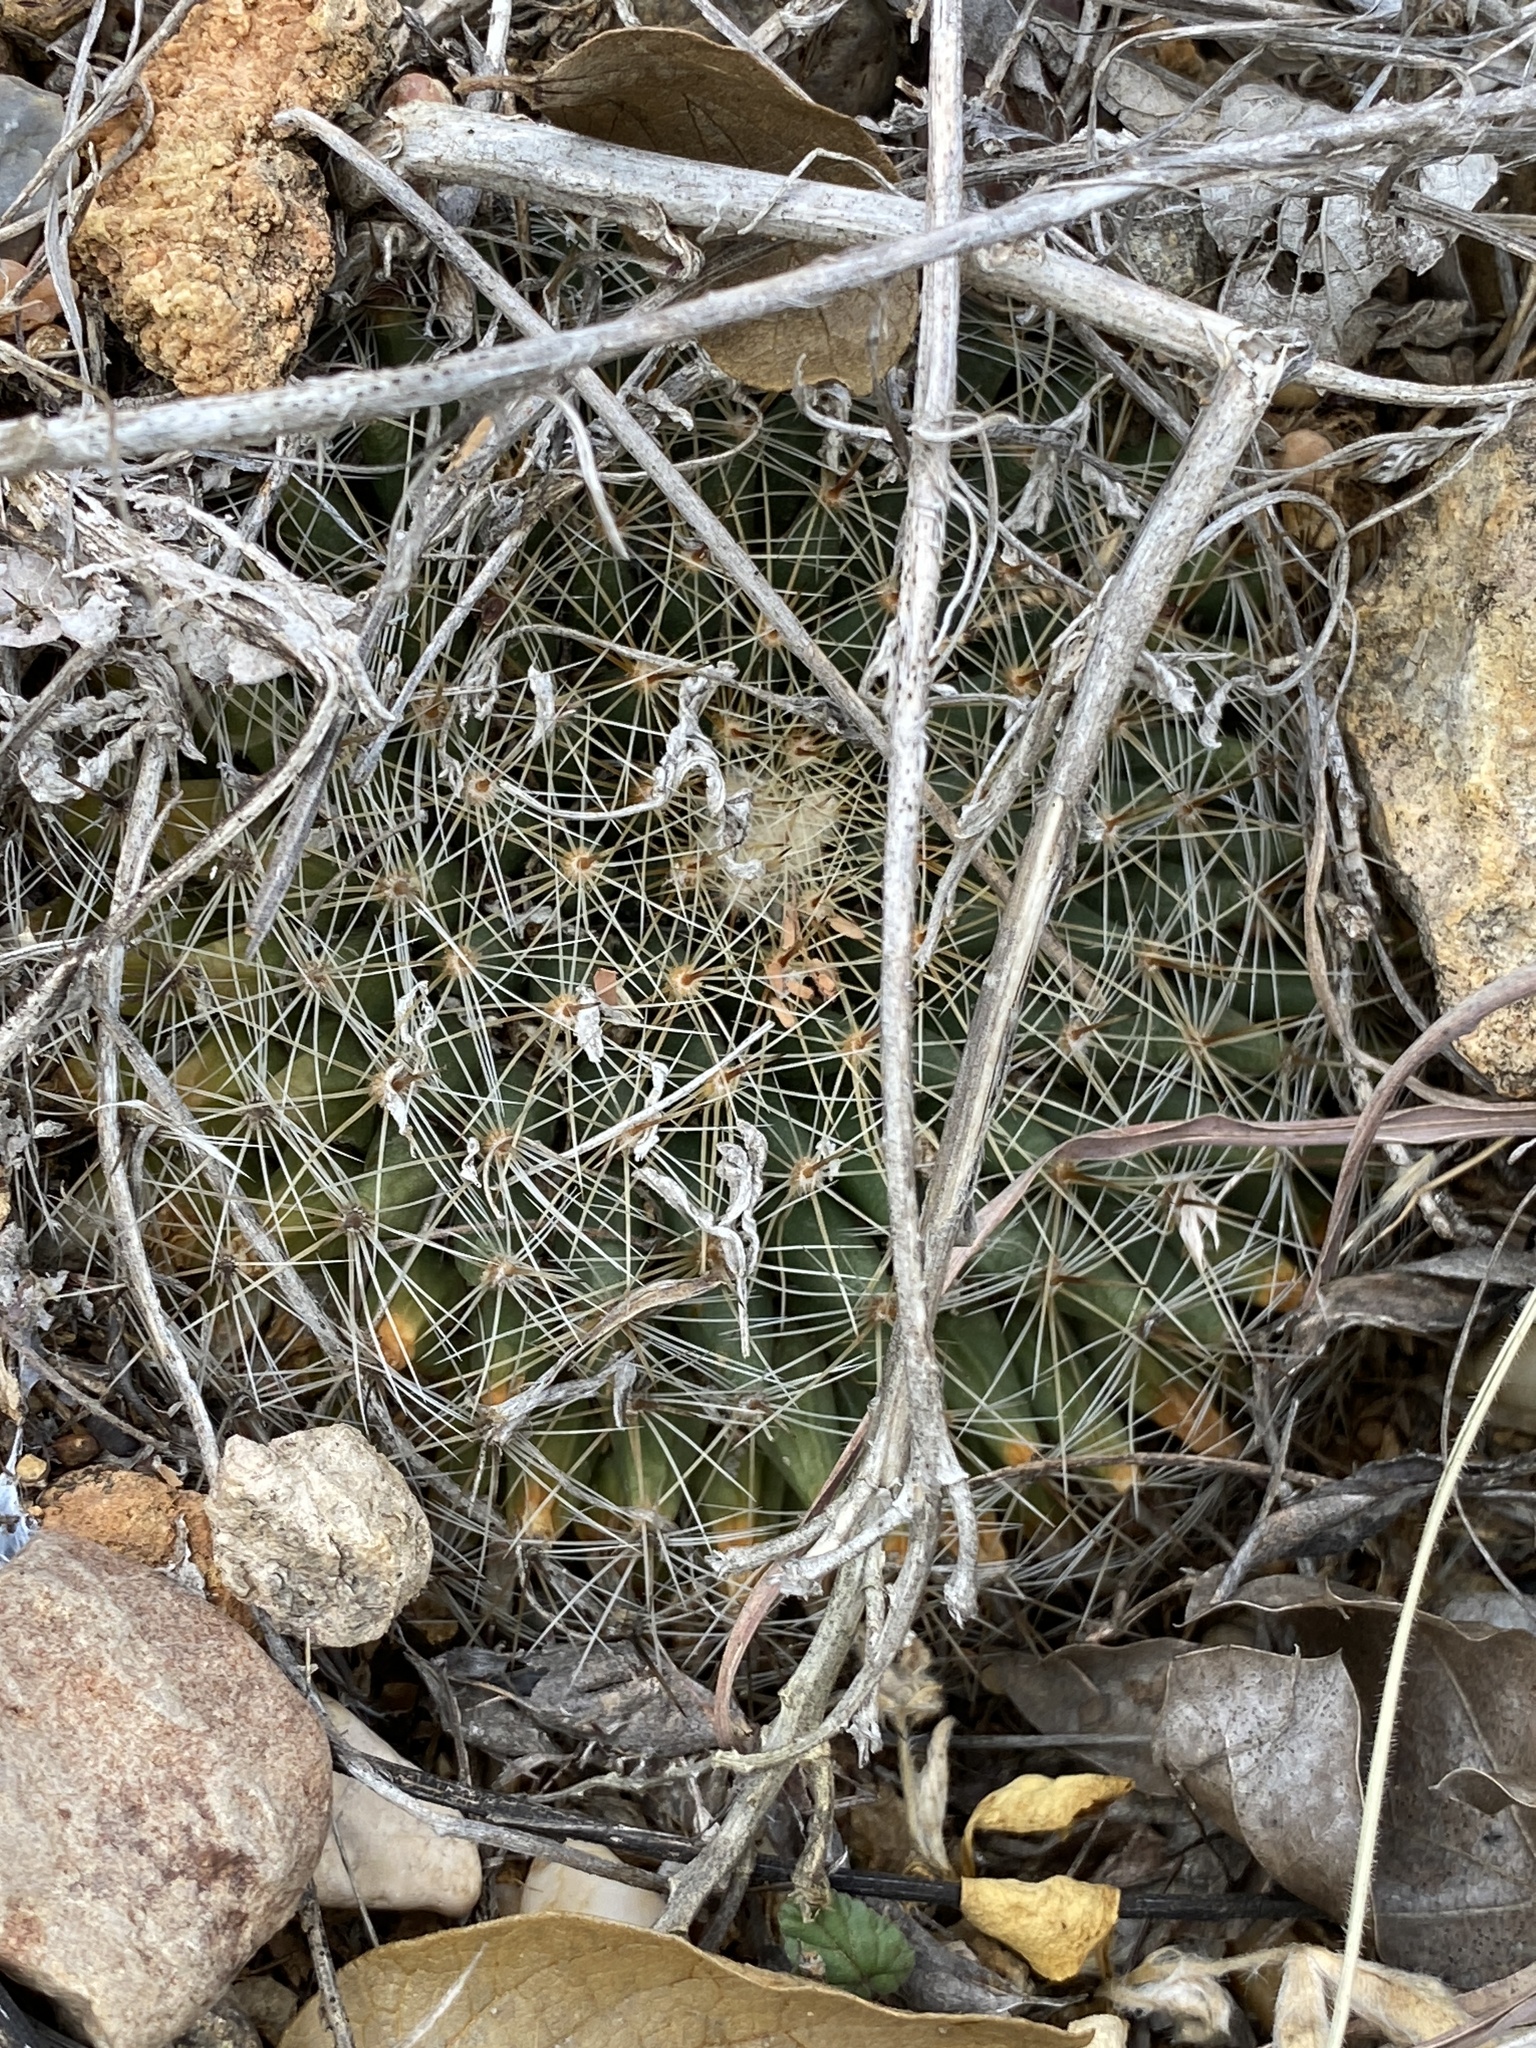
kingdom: Plantae
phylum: Tracheophyta
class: Magnoliopsida
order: Caryophyllales
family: Cactaceae
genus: Mammillaria
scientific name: Mammillaria heyderi
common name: Little nipple cactus
